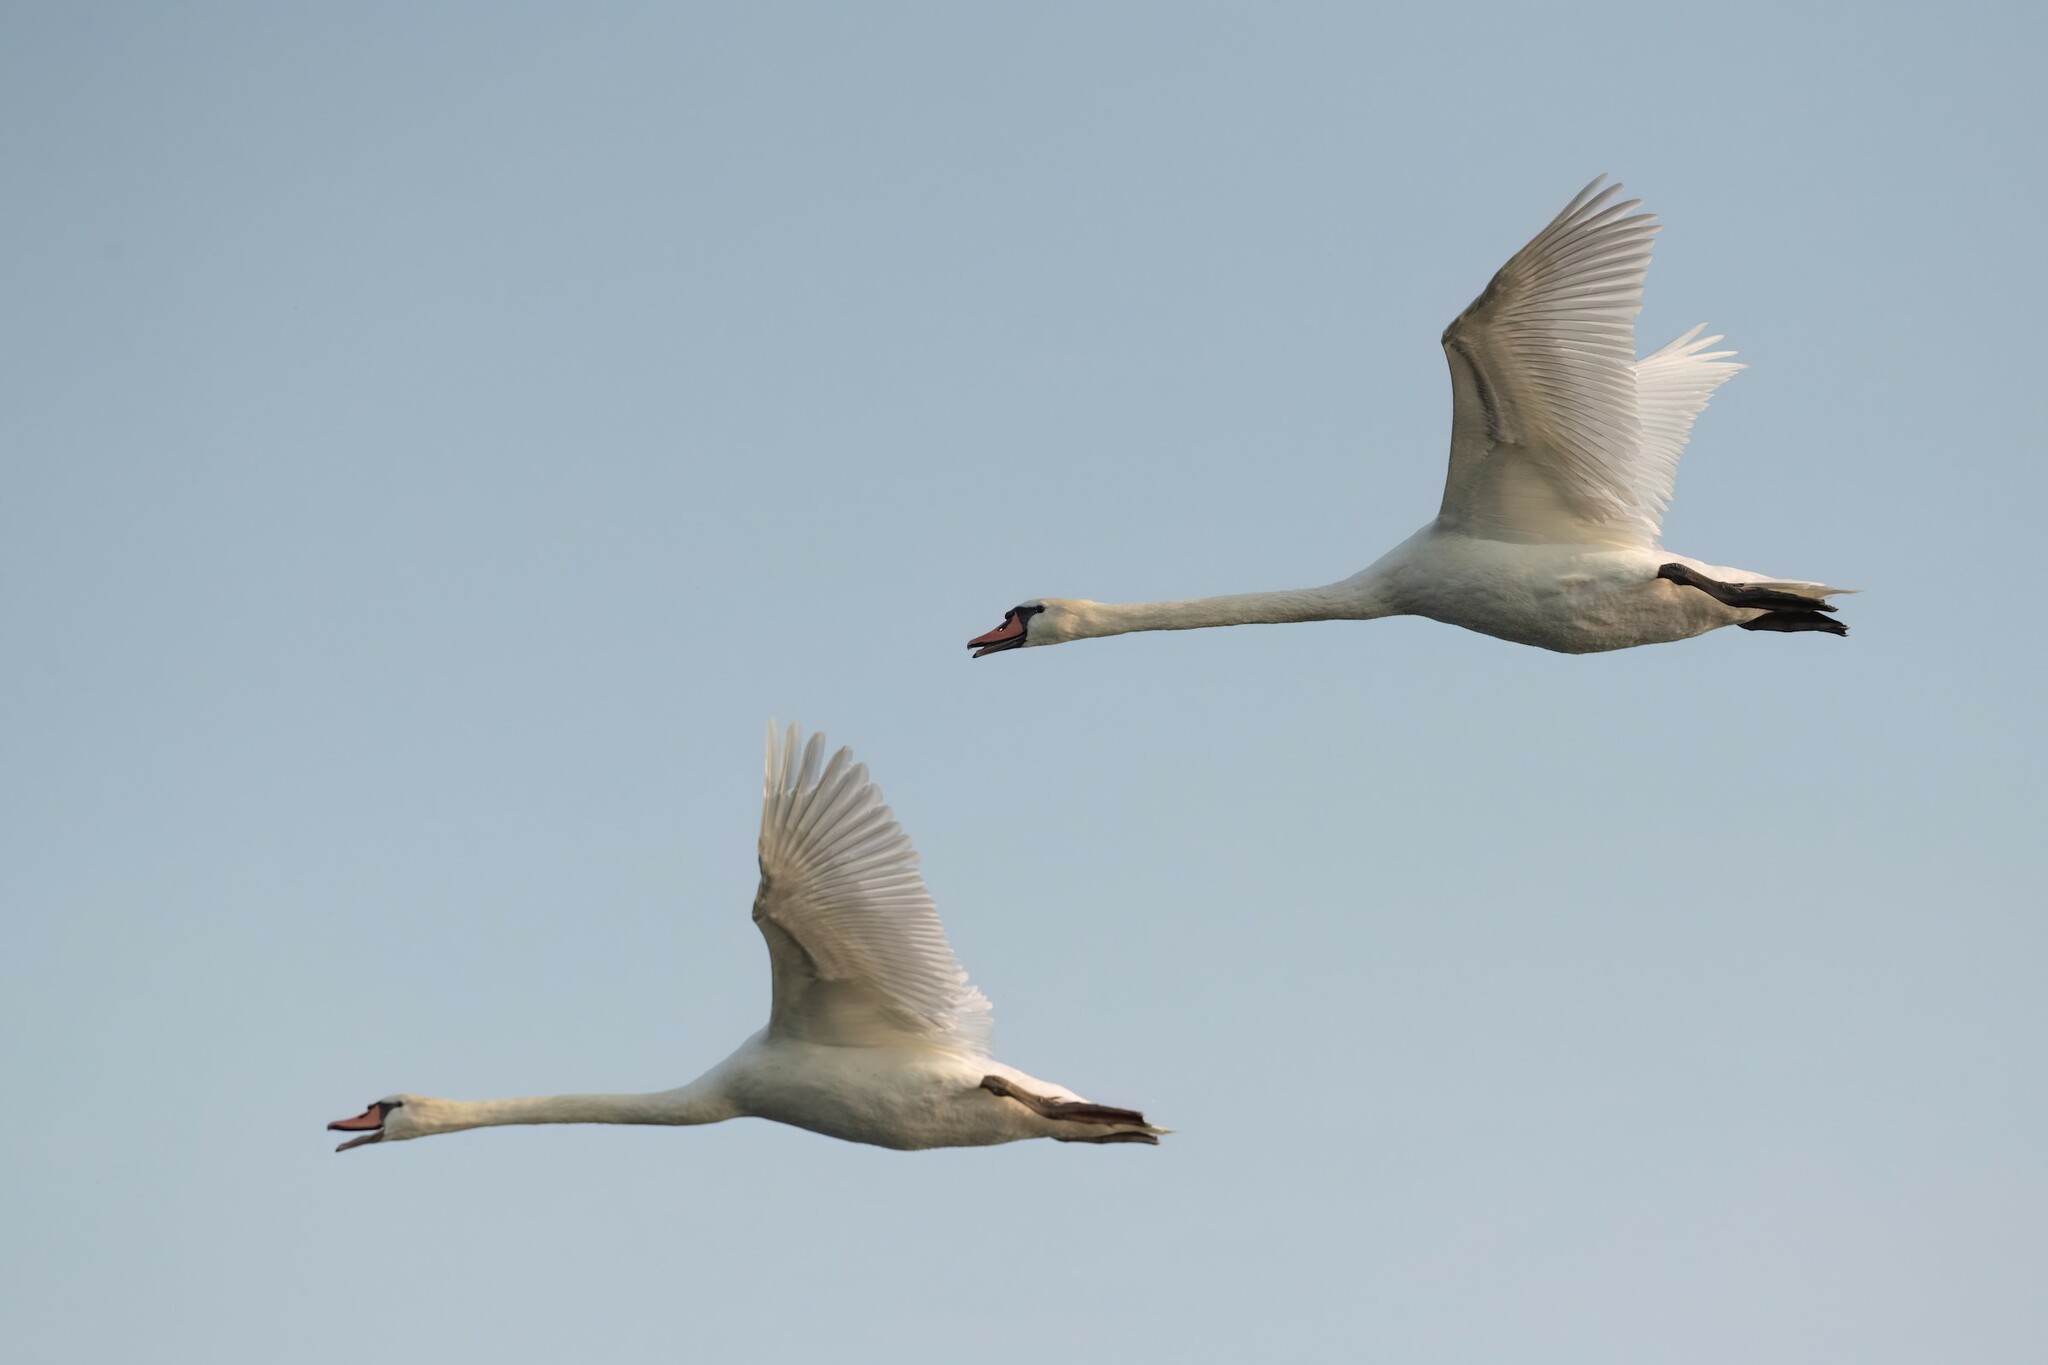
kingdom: Animalia
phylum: Chordata
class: Aves
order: Anseriformes
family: Anatidae
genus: Cygnus
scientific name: Cygnus olor
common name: Mute swan
